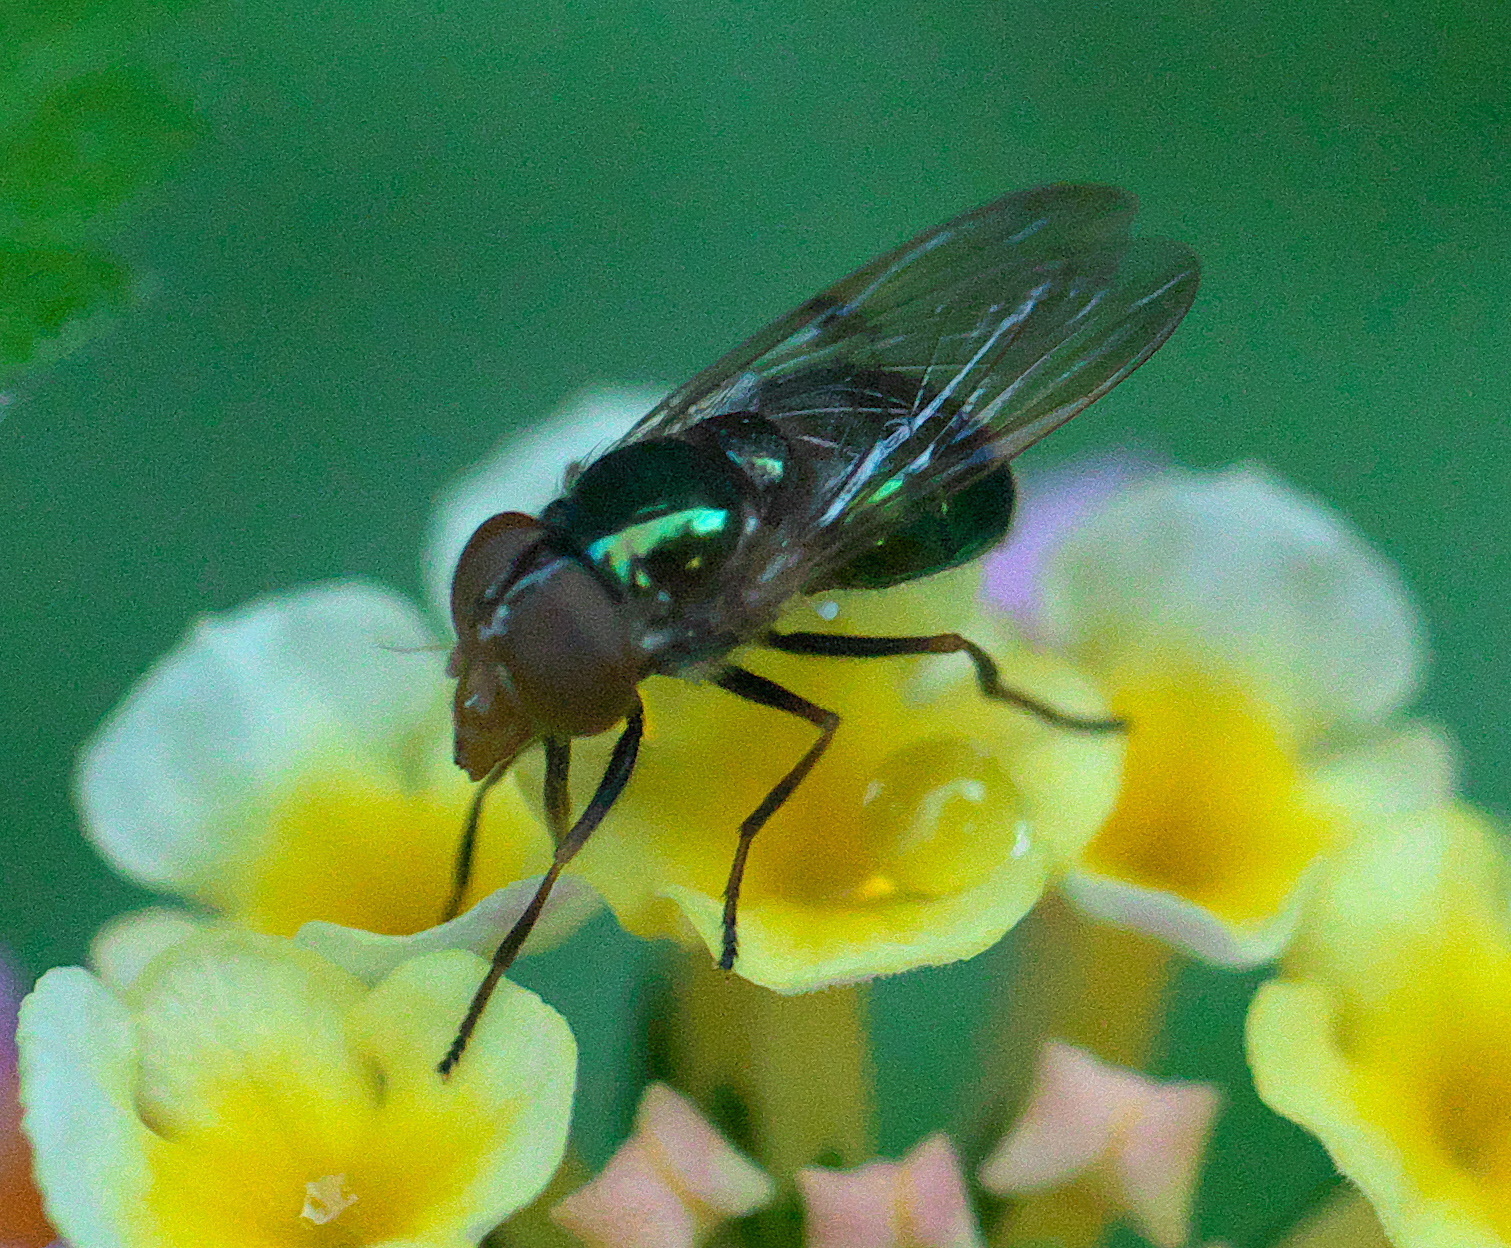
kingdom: Animalia
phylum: Arthropoda
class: Insecta
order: Diptera
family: Syrphidae
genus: Copestylum
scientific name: Copestylum vesicularium
